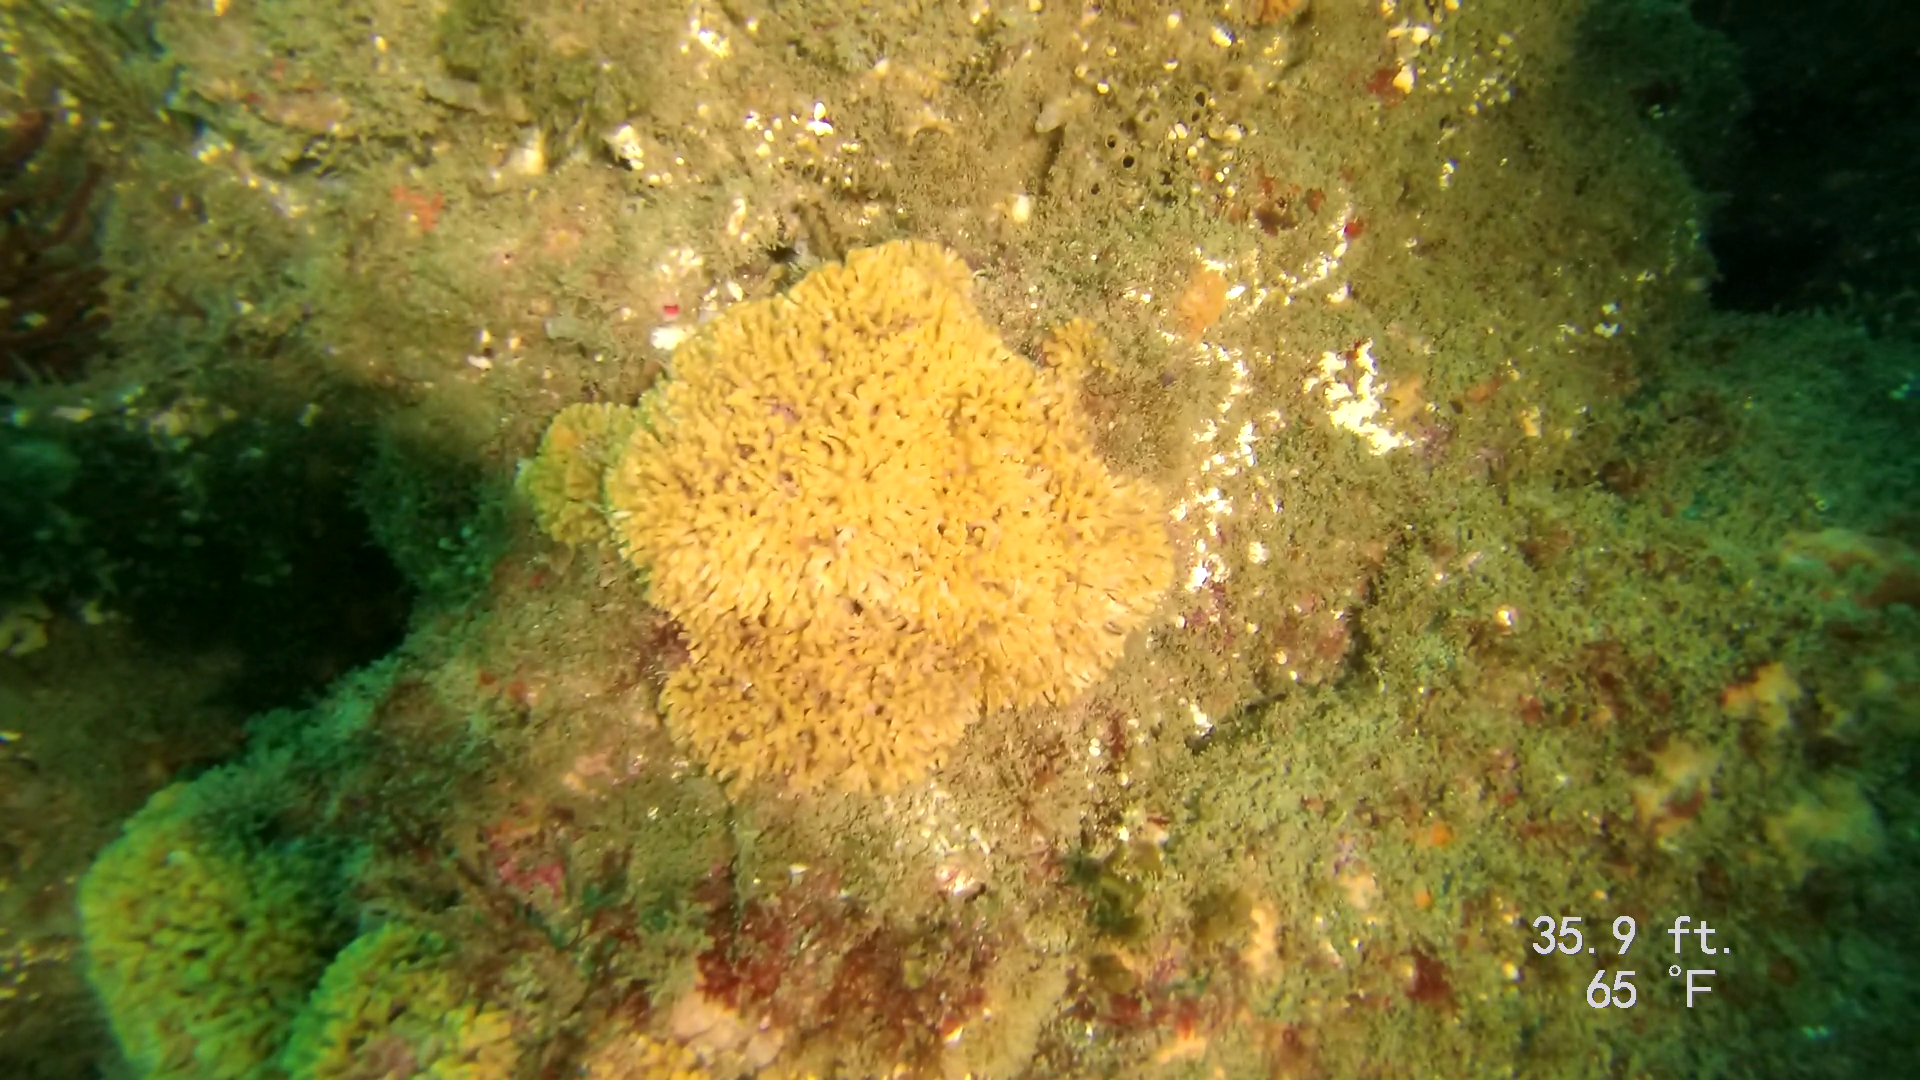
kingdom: Animalia
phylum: Bryozoa
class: Stenolaemata
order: Cyclostomatida
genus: Diaperoforma
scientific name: Diaperoforma californica
